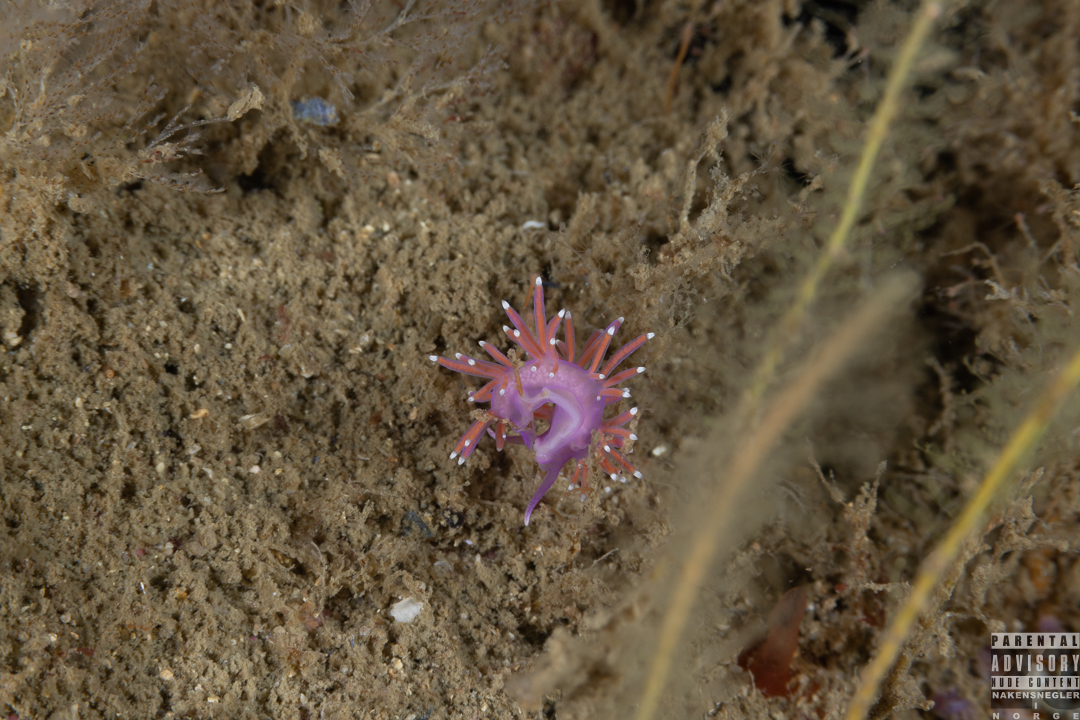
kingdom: Animalia
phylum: Mollusca
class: Gastropoda
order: Nudibranchia
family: Flabellinidae
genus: Edmundsella
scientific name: Edmundsella pedata
